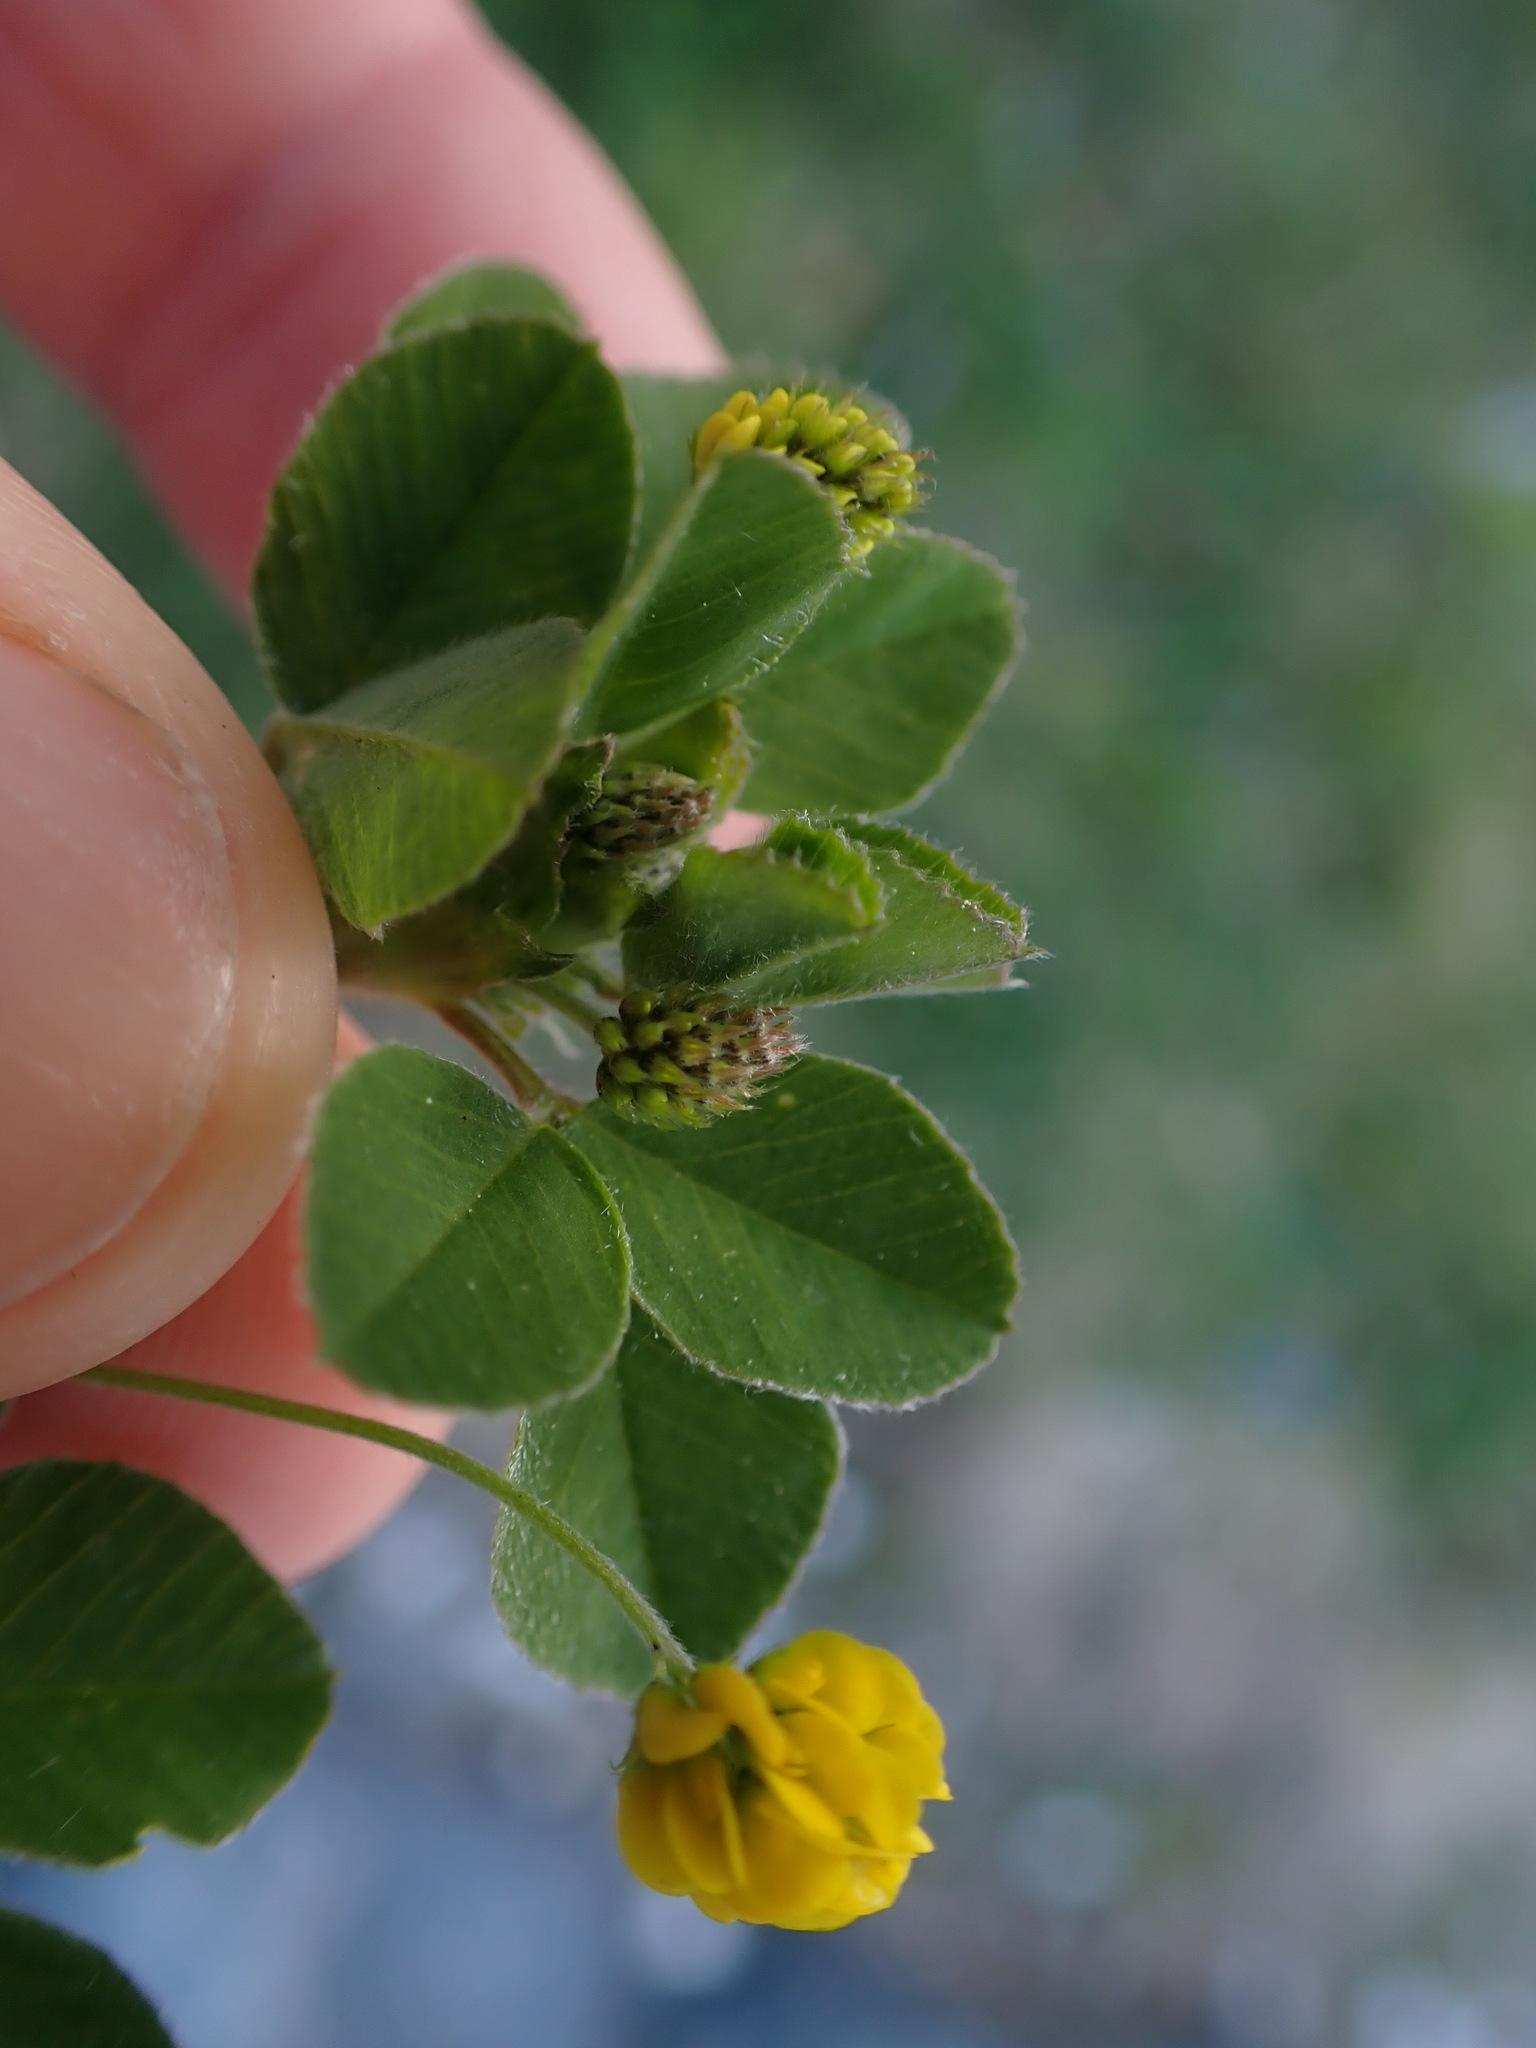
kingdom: Plantae
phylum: Tracheophyta
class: Magnoliopsida
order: Fabales
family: Fabaceae
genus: Medicago
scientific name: Medicago lupulina
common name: Black medick
